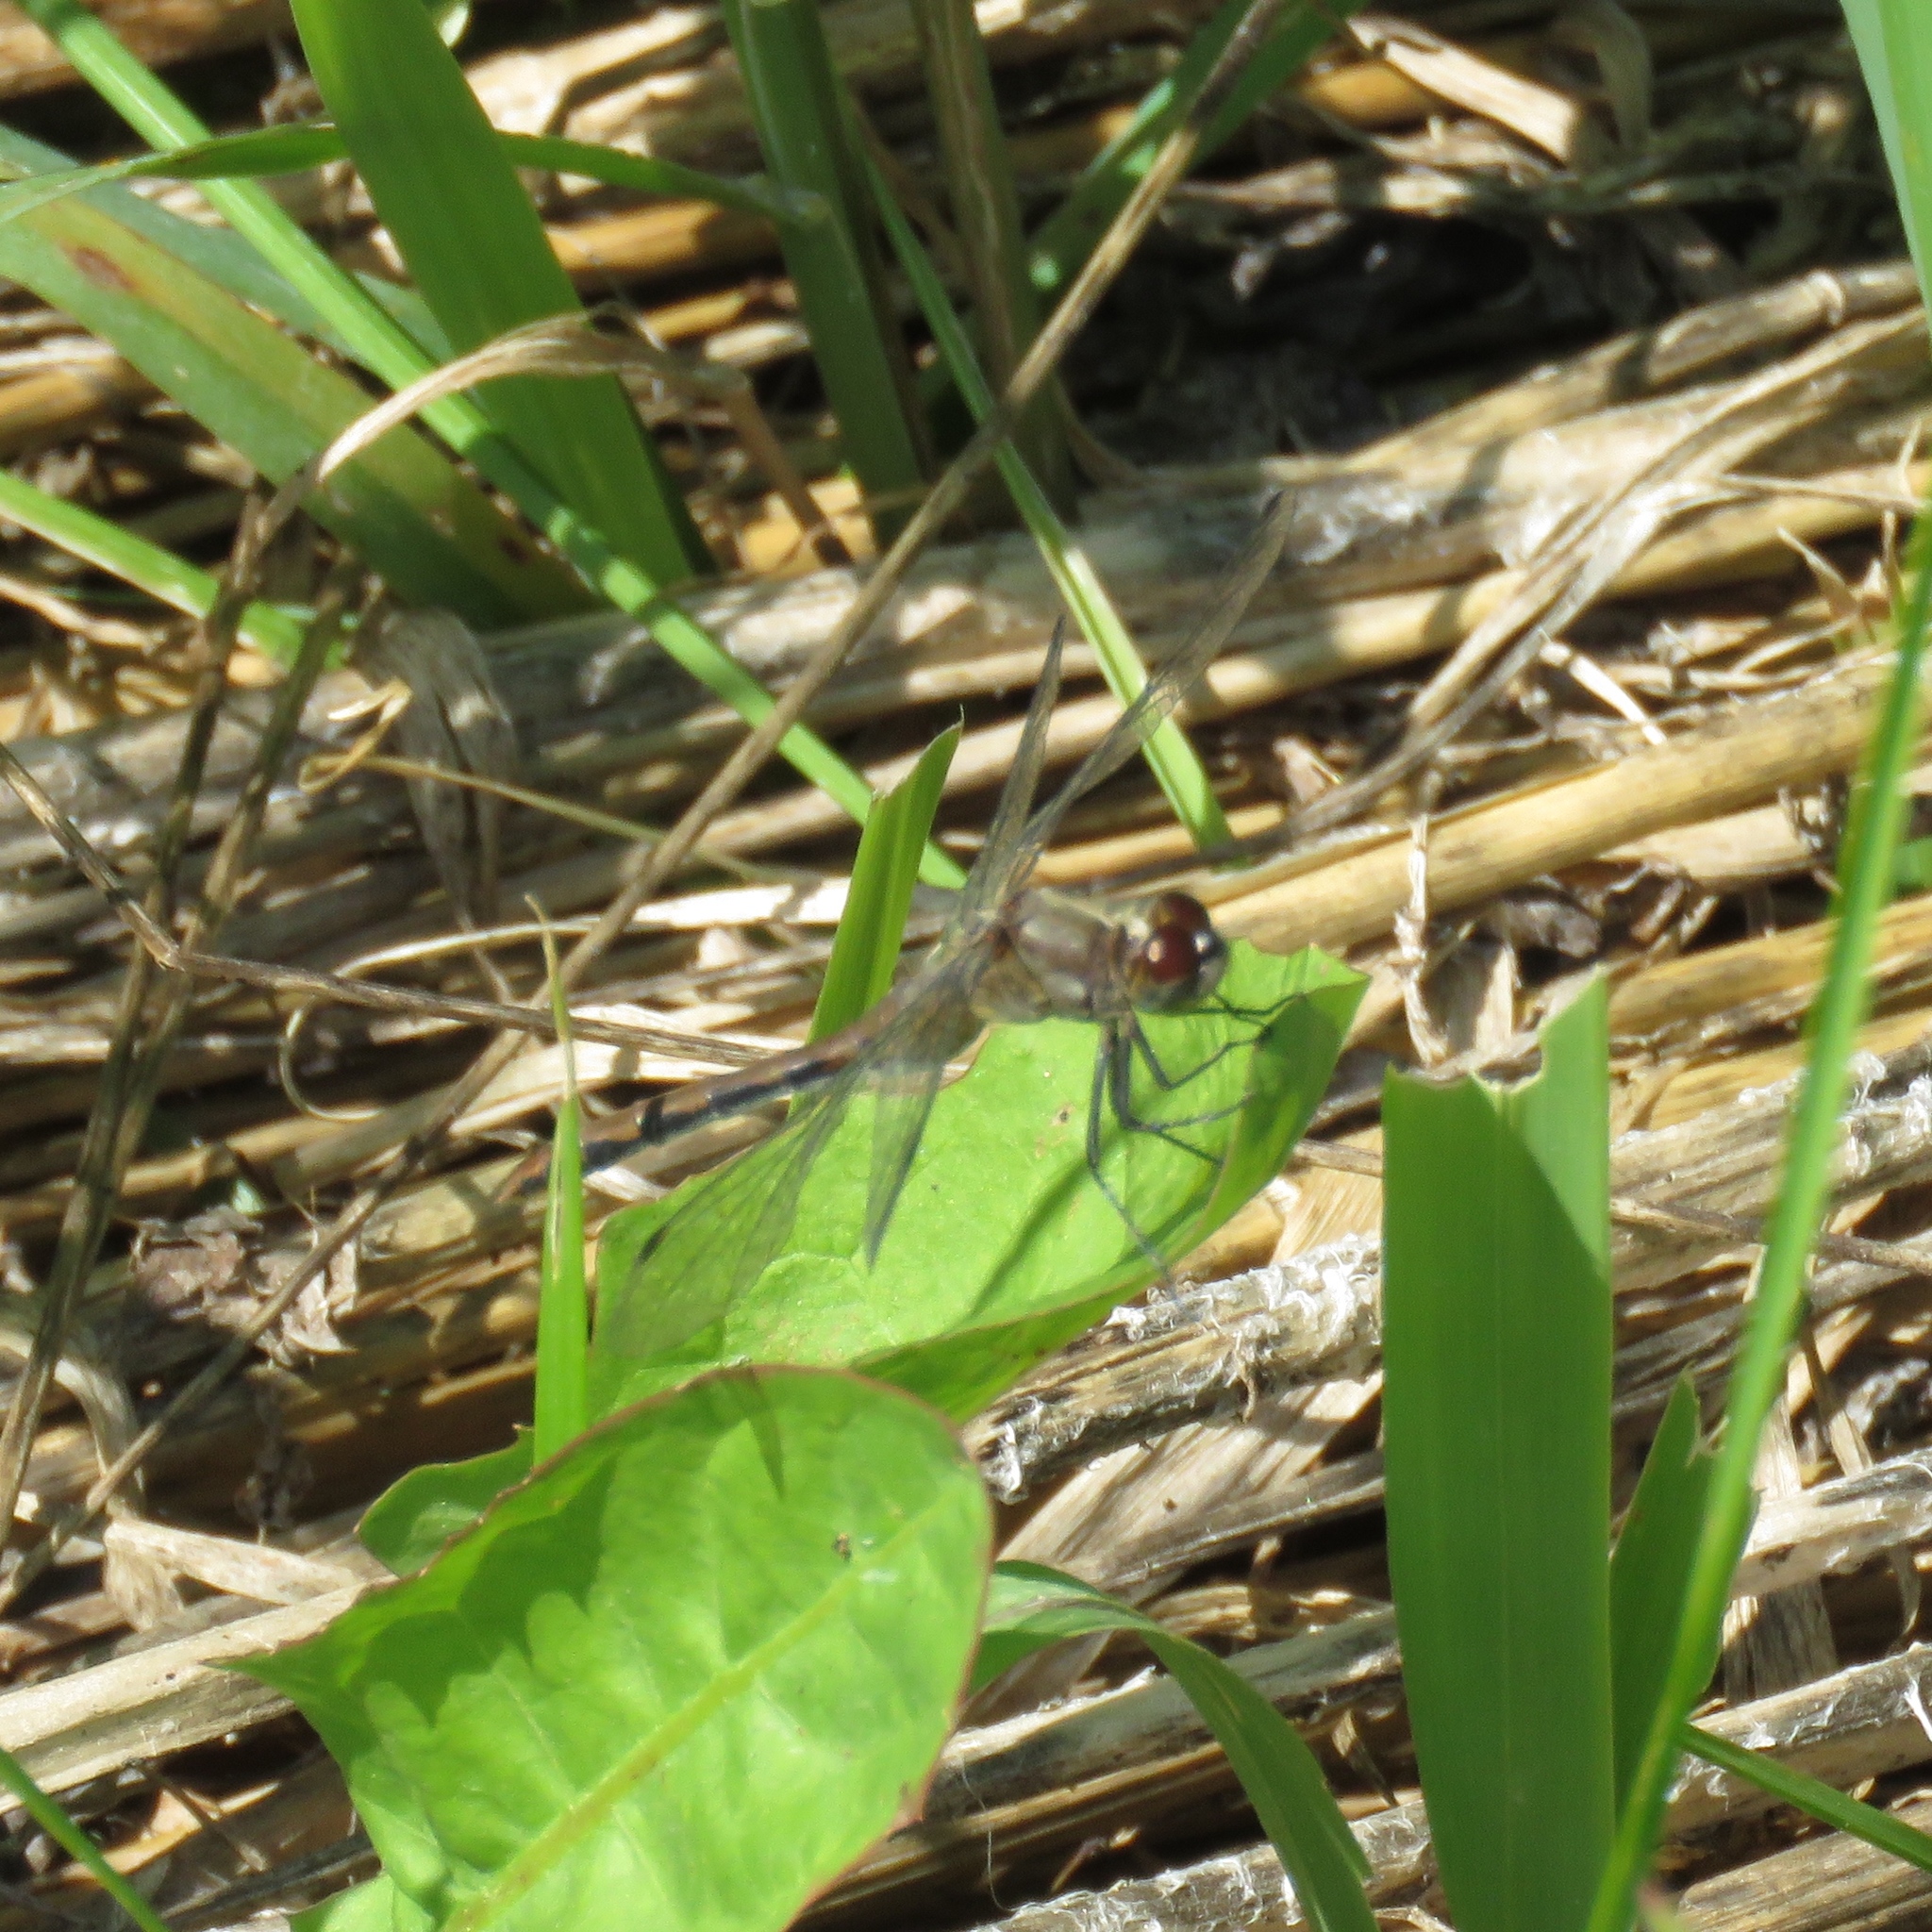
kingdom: Animalia
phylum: Arthropoda
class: Insecta
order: Odonata
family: Libellulidae
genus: Sympetrum
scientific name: Sympetrum
